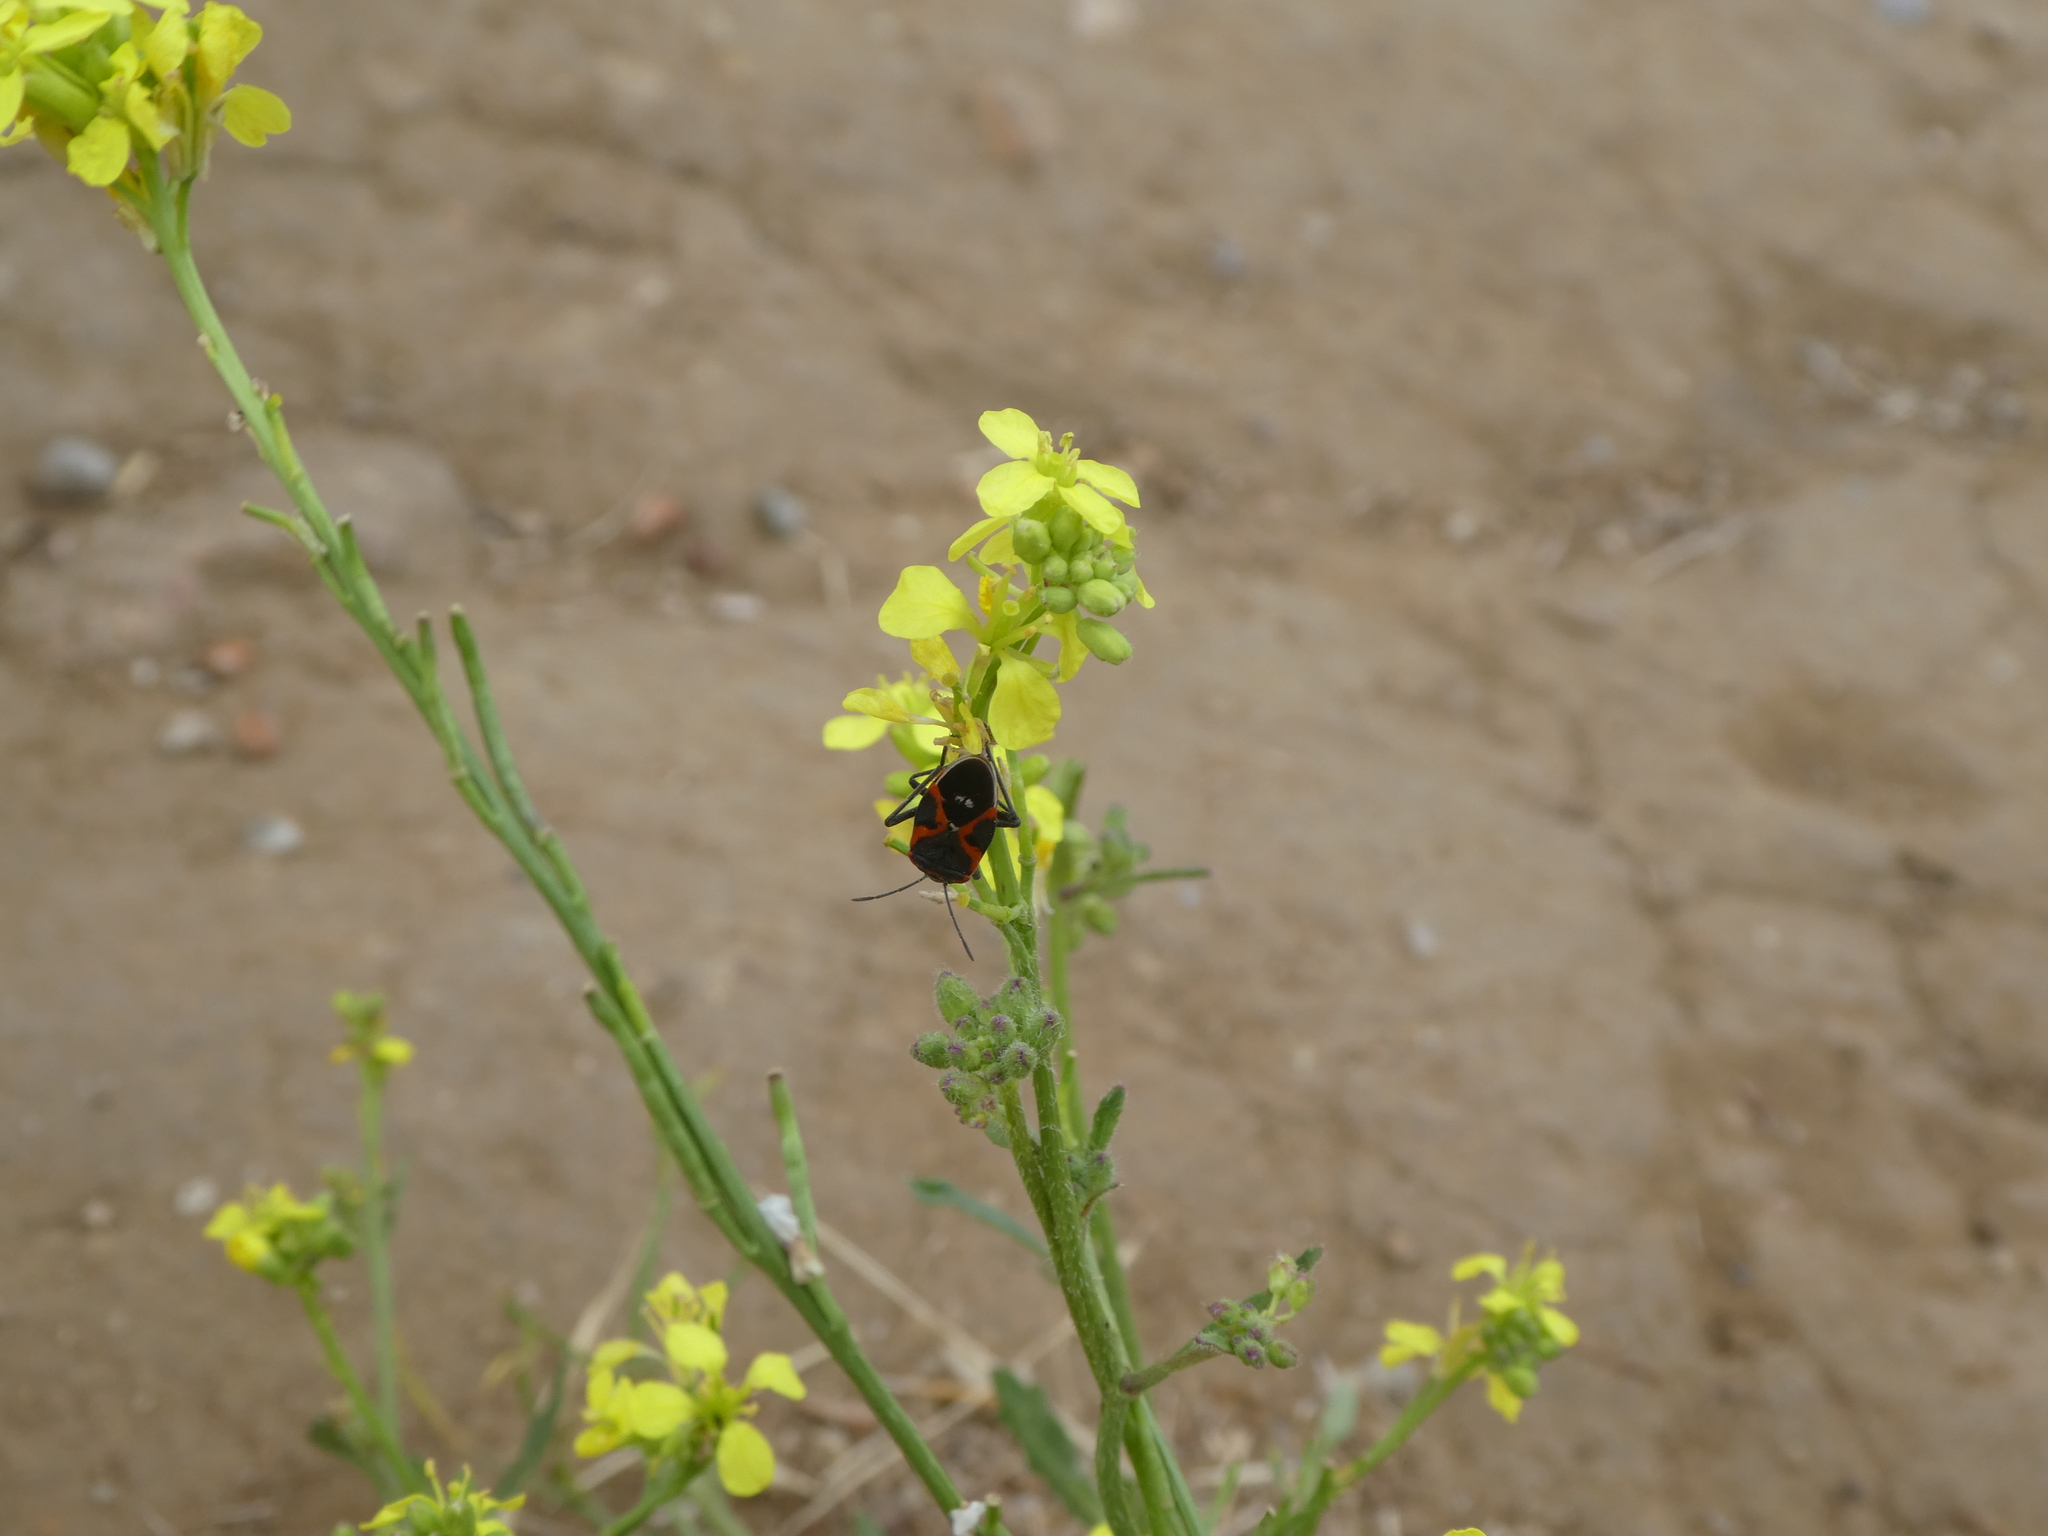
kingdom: Animalia
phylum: Arthropoda
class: Insecta
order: Hemiptera
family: Lygaeidae
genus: Lygaeus
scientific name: Lygaeus kalmii
